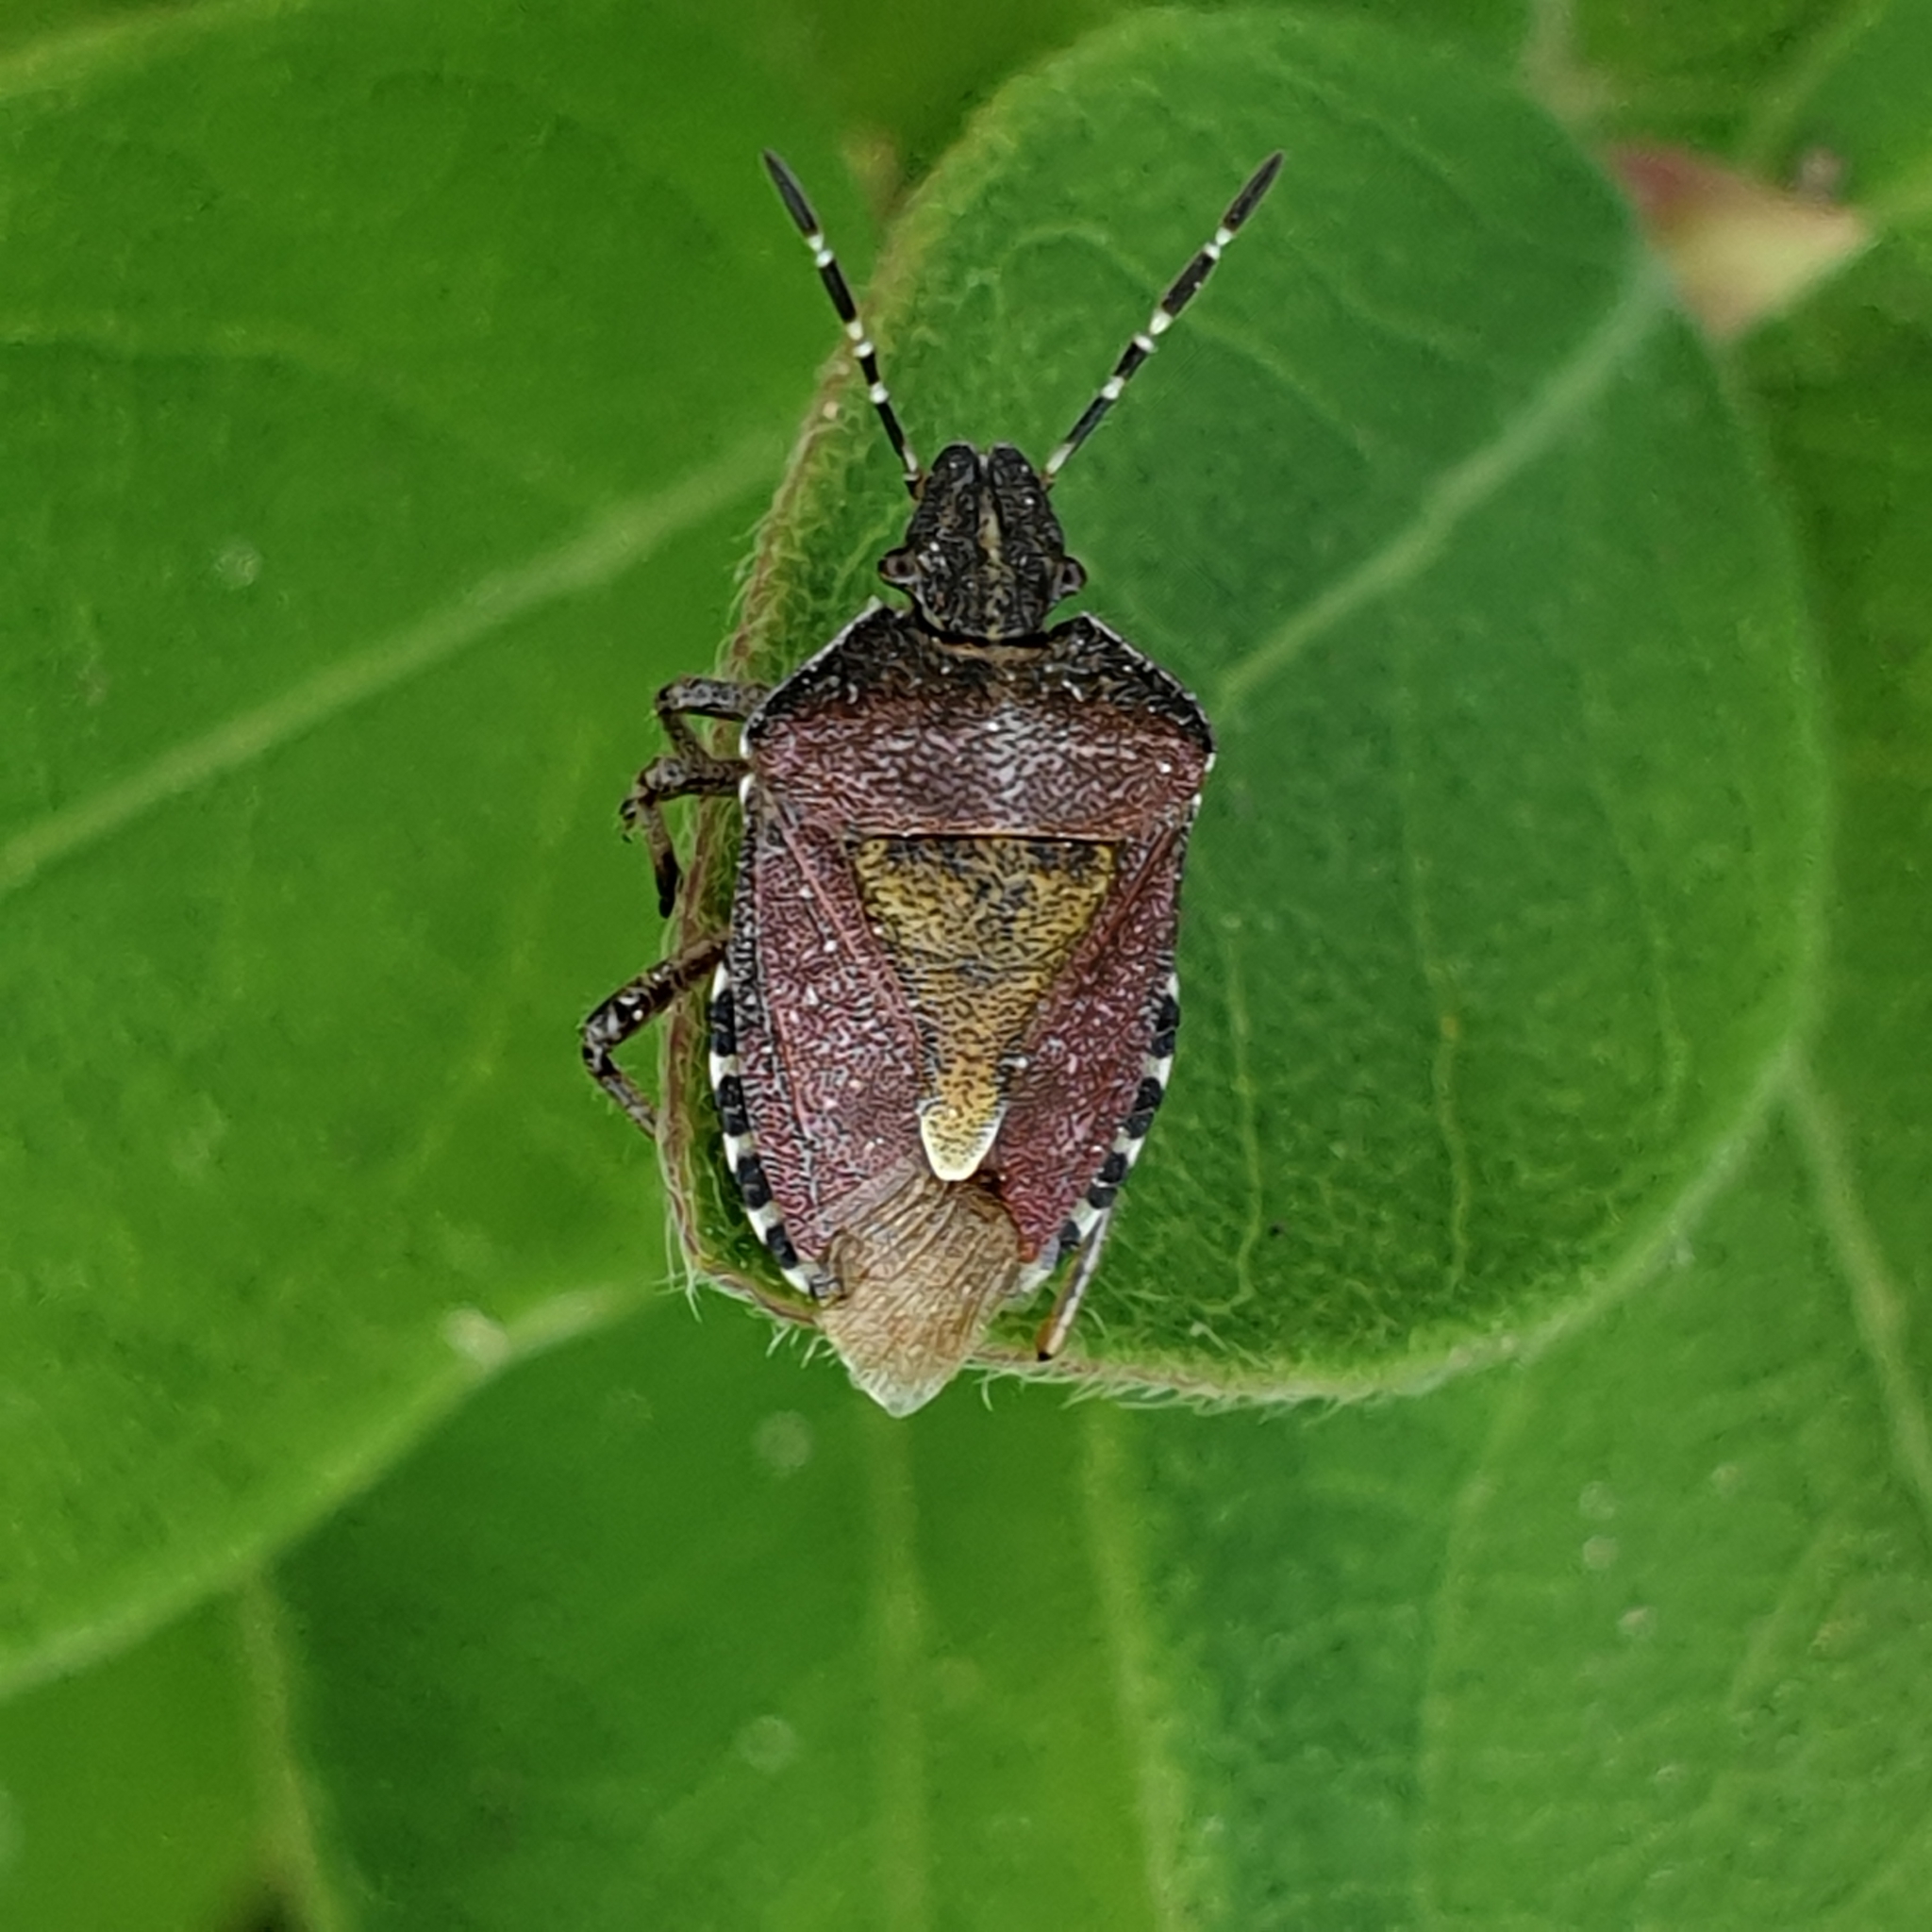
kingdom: Animalia
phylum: Arthropoda
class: Insecta
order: Hemiptera
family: Pentatomidae
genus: Dolycoris
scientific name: Dolycoris baccarum
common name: Sloe bug
